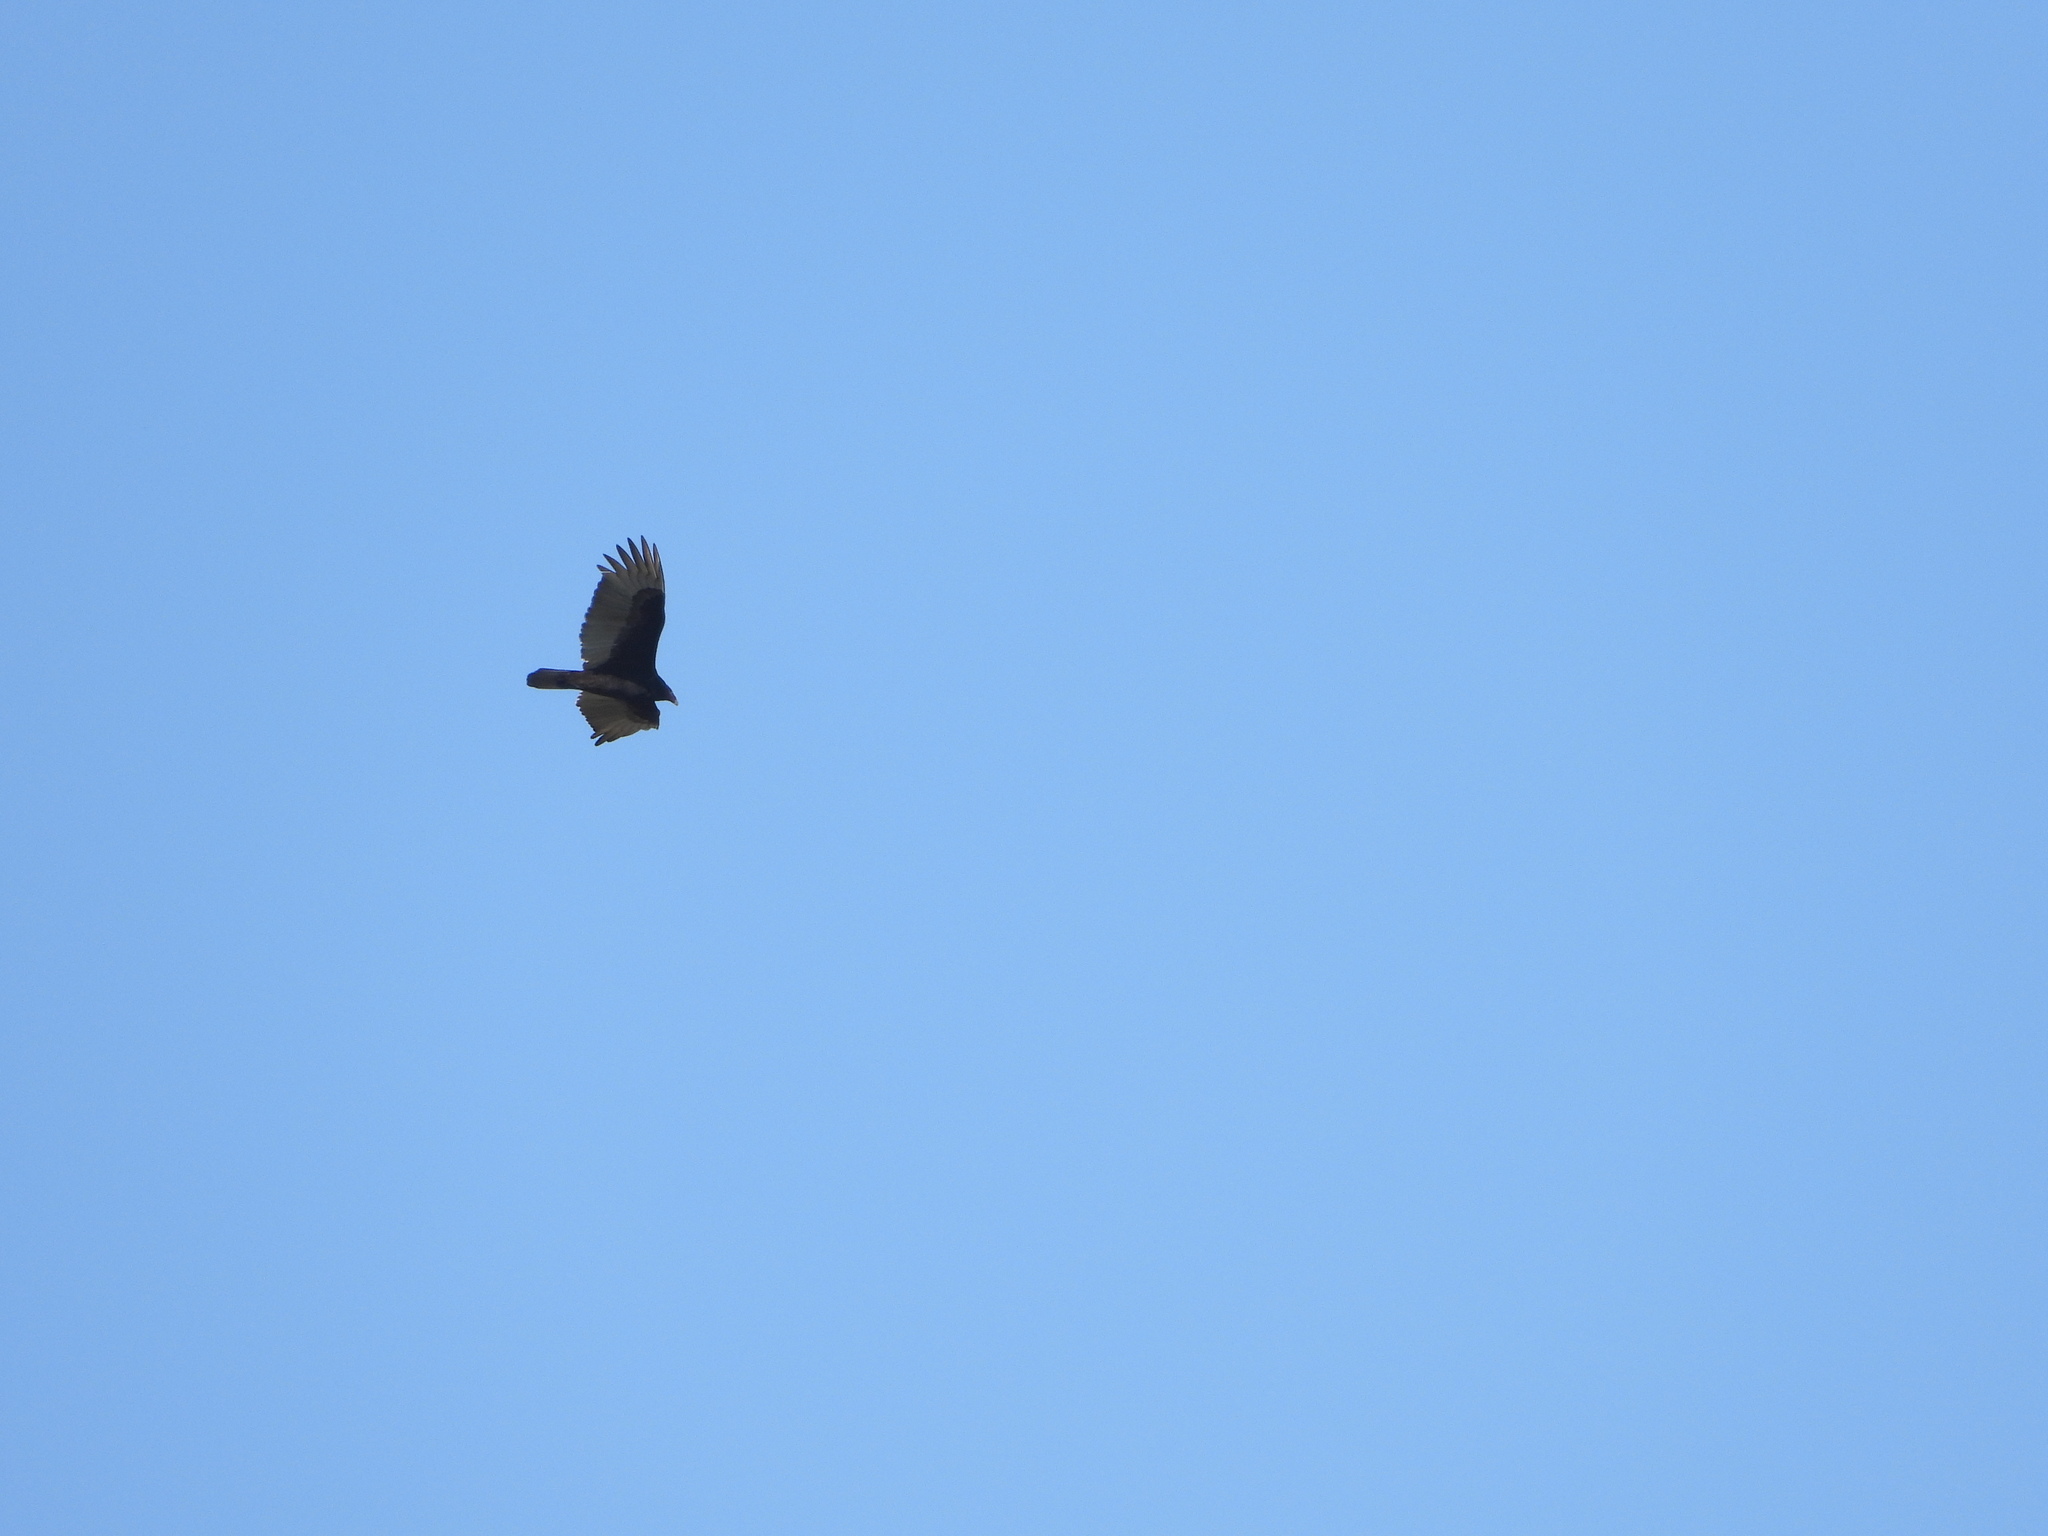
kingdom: Animalia
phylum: Chordata
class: Aves
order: Accipitriformes
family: Cathartidae
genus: Cathartes
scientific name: Cathartes aura
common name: Turkey vulture
